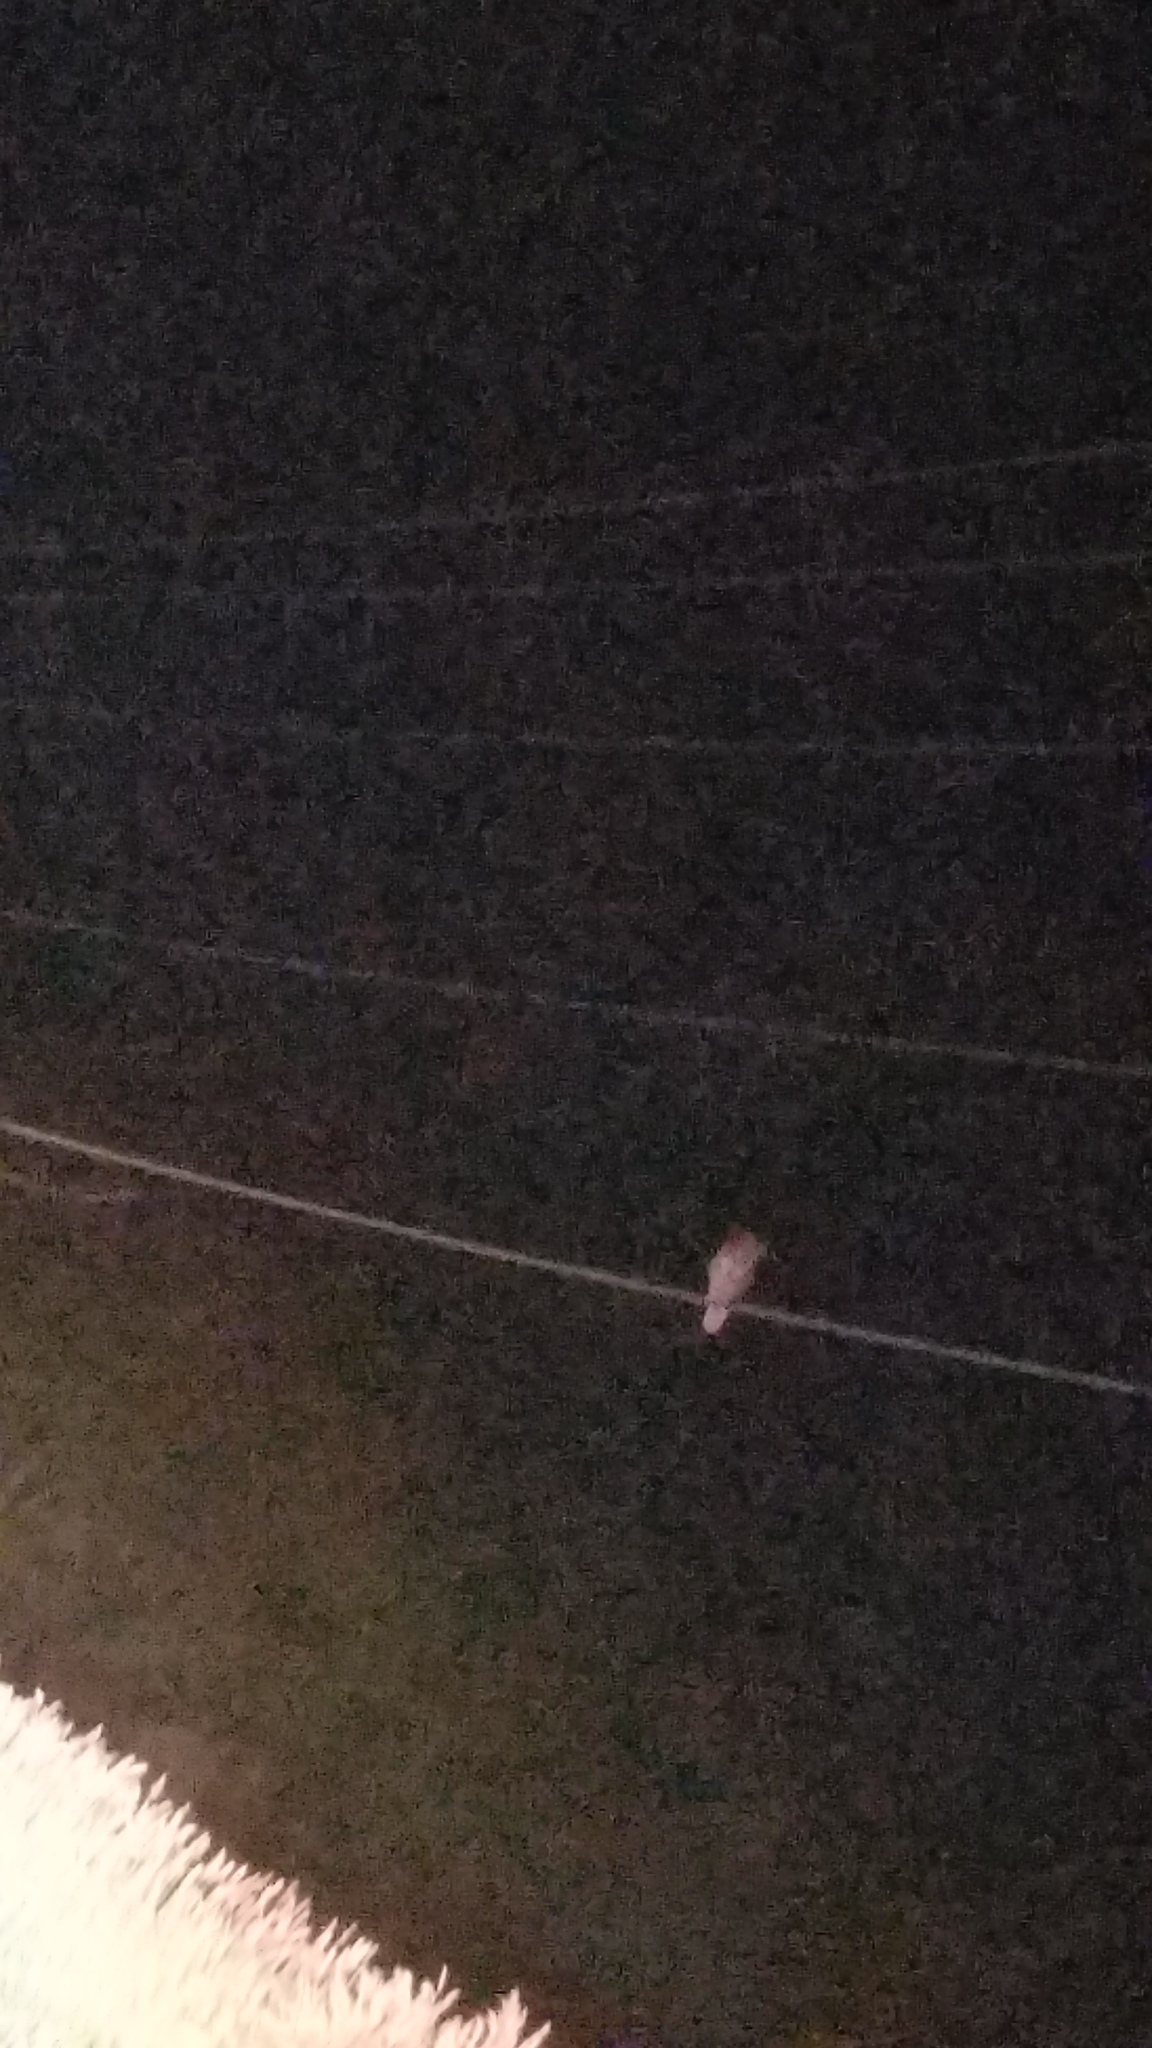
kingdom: Animalia
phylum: Chordata
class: Aves
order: Strigiformes
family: Strigidae
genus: Bubo
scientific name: Bubo virginianus
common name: Great horned owl
